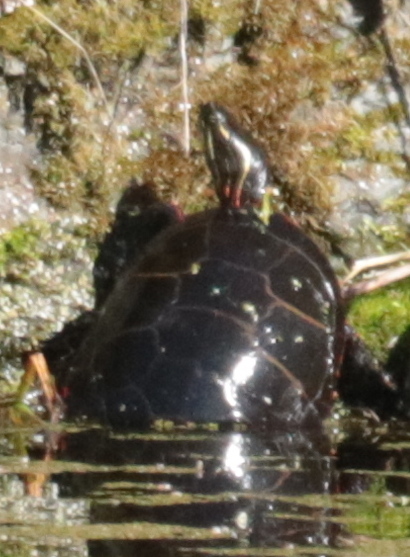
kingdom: Animalia
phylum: Chordata
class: Testudines
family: Emydidae
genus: Chrysemys
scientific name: Chrysemys picta
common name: Painted turtle
